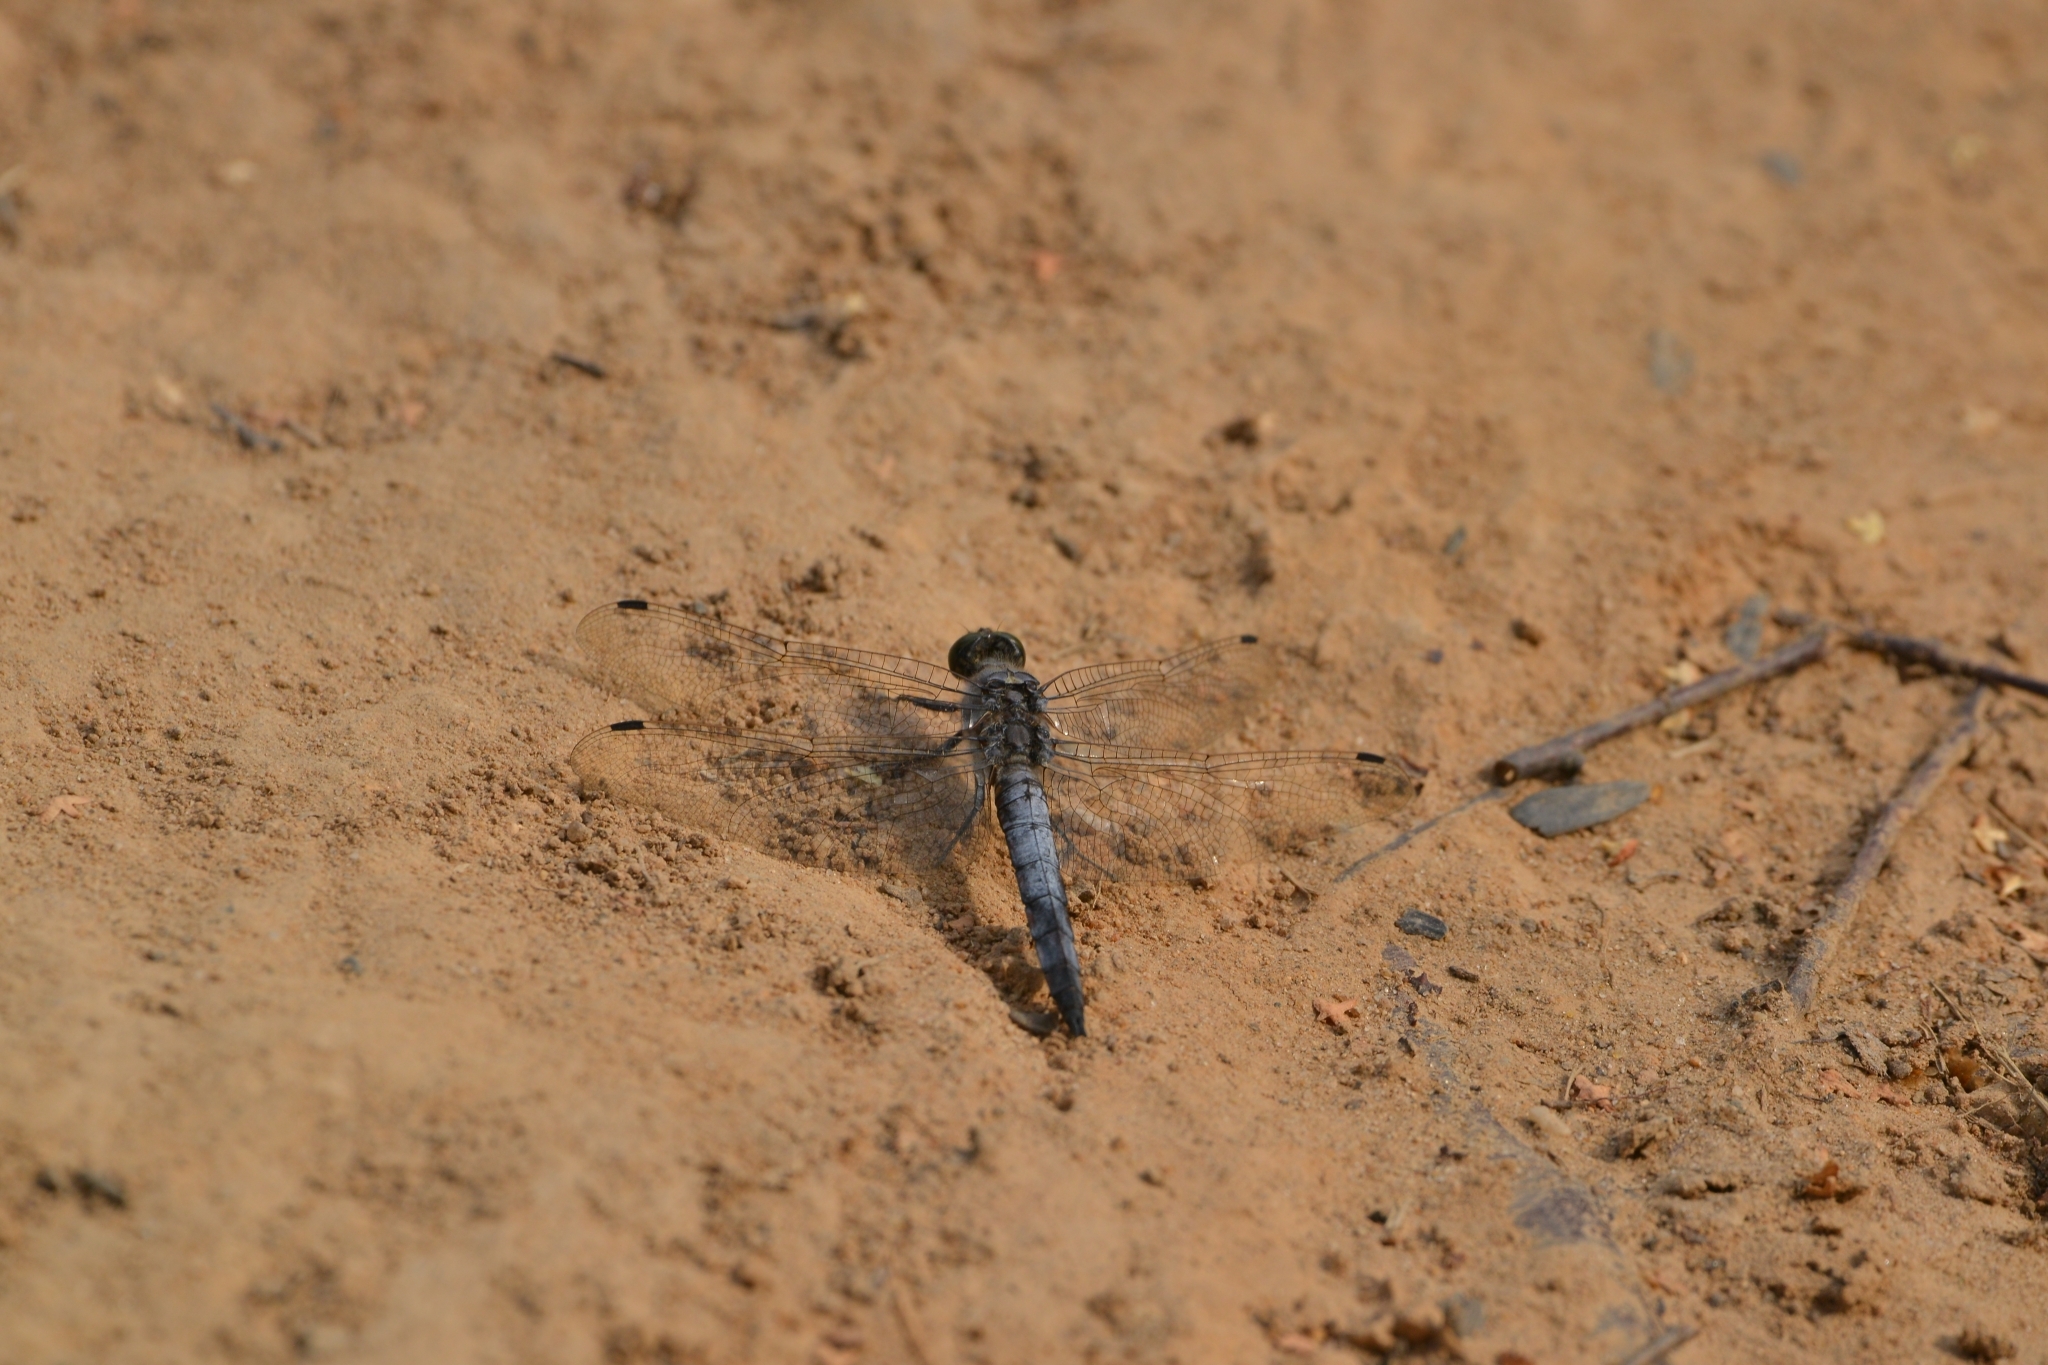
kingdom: Animalia
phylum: Arthropoda
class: Insecta
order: Odonata
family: Libellulidae
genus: Orthetrum
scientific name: Orthetrum cancellatum
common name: Black-tailed skimmer
